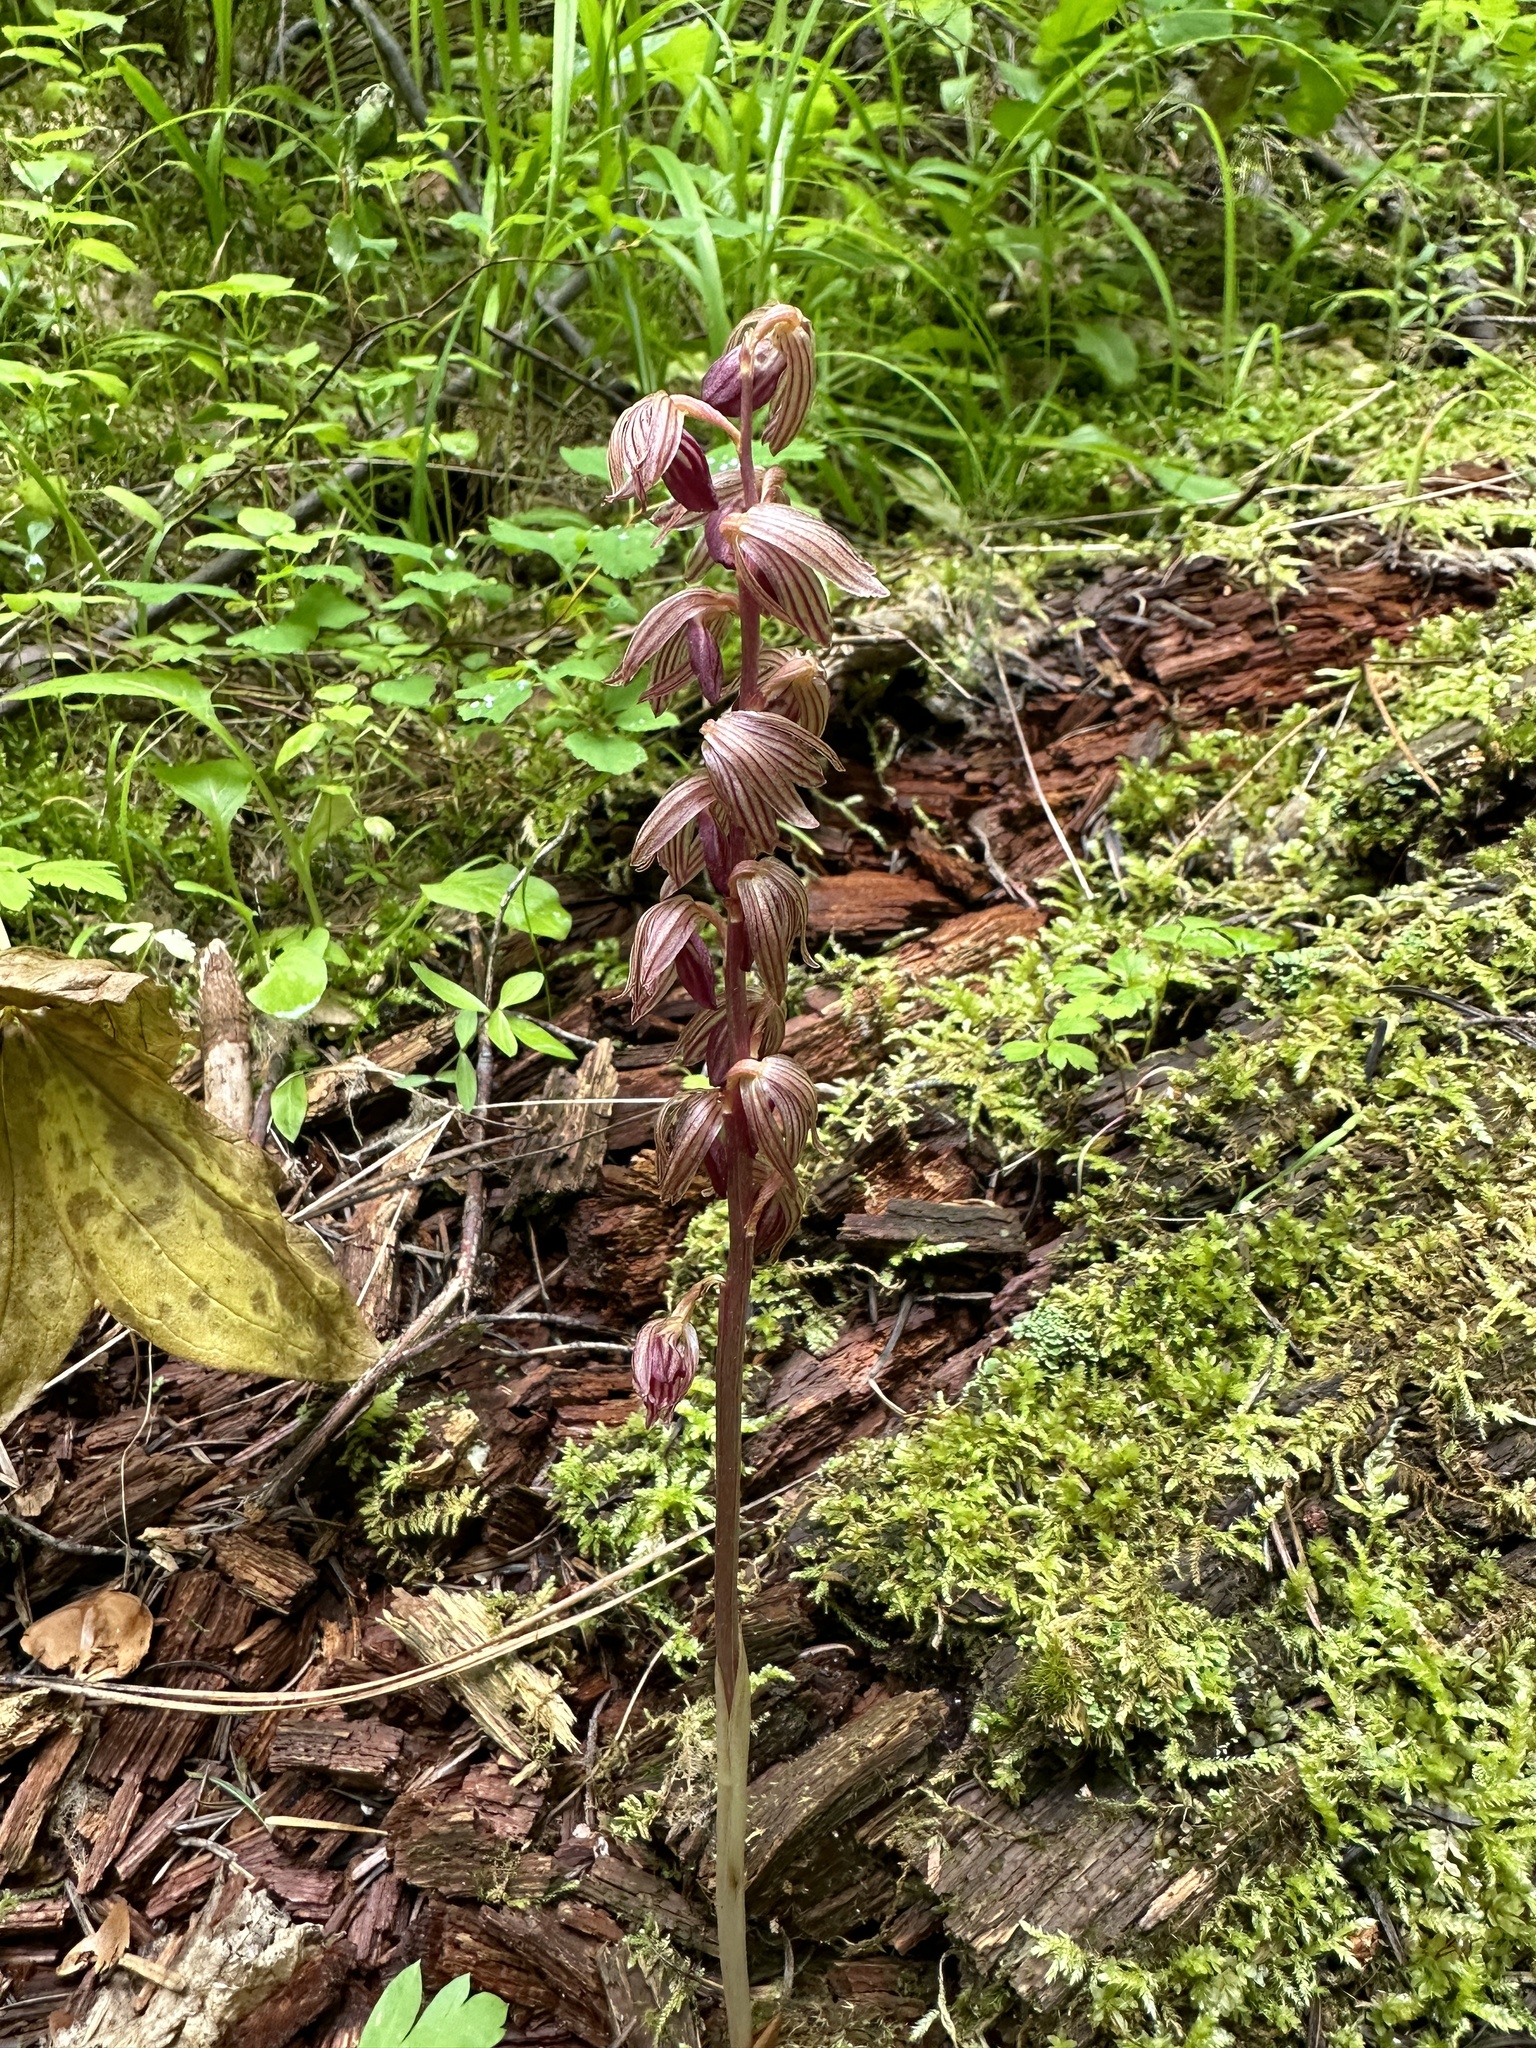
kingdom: Plantae
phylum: Tracheophyta
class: Liliopsida
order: Asparagales
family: Orchidaceae
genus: Corallorhiza
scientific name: Corallorhiza striata
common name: Hooded coralroot
